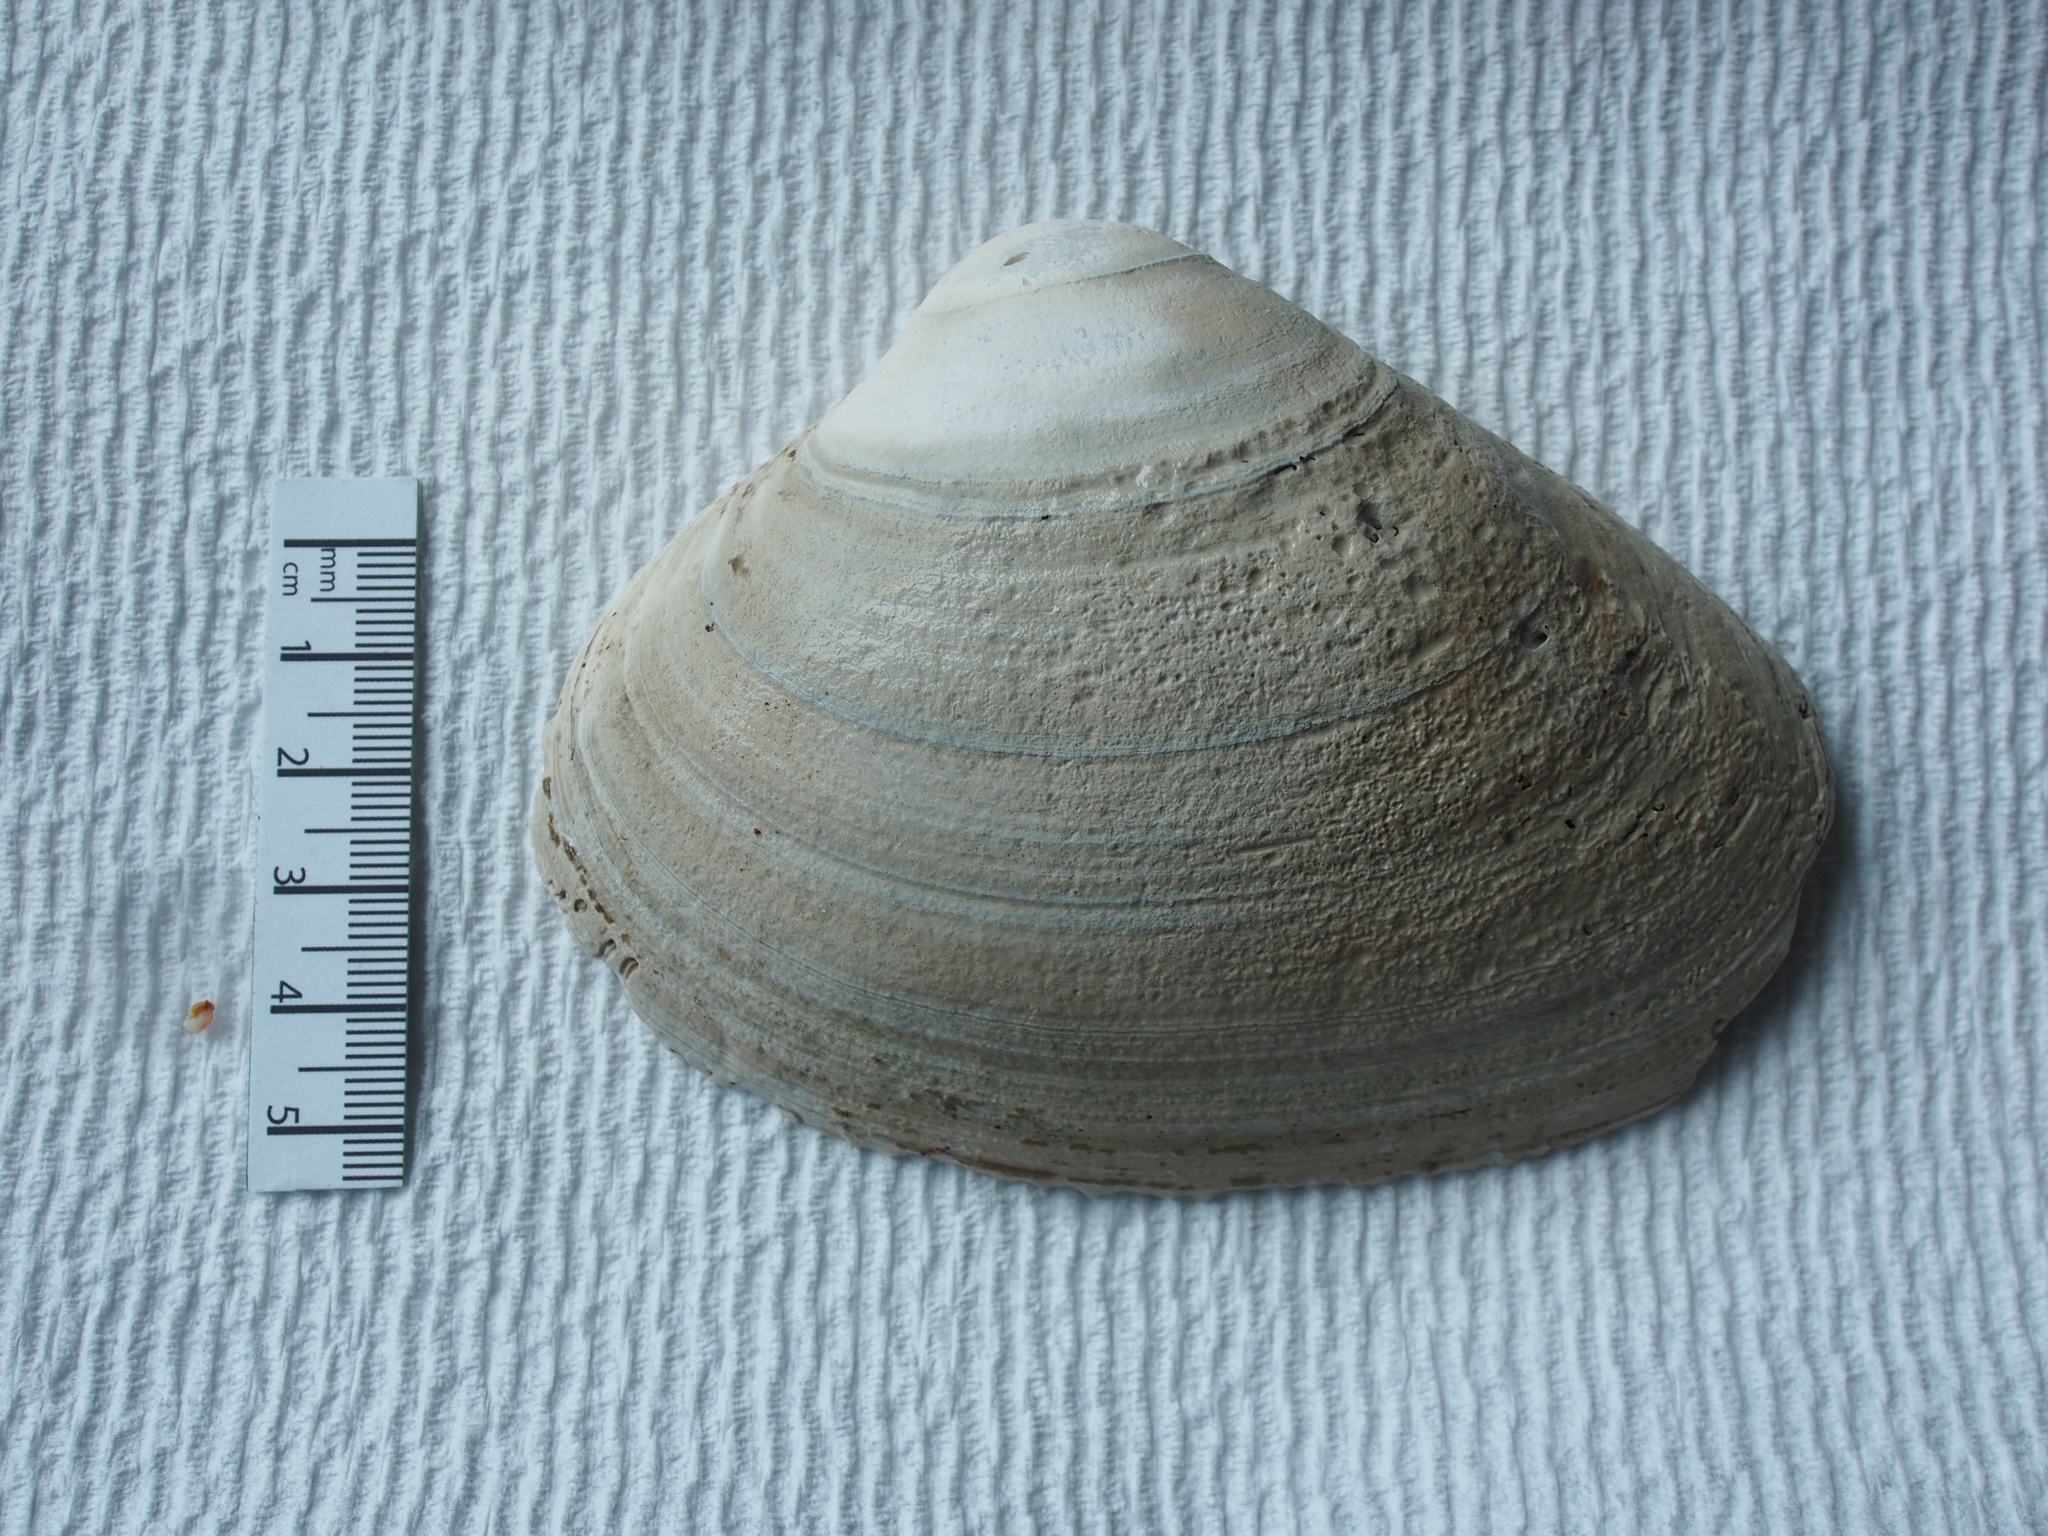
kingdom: Animalia
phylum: Mollusca
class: Bivalvia
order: Venerida
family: Mactridae
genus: Spisula
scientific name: Spisula solidissima
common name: Atlantic surf clam
